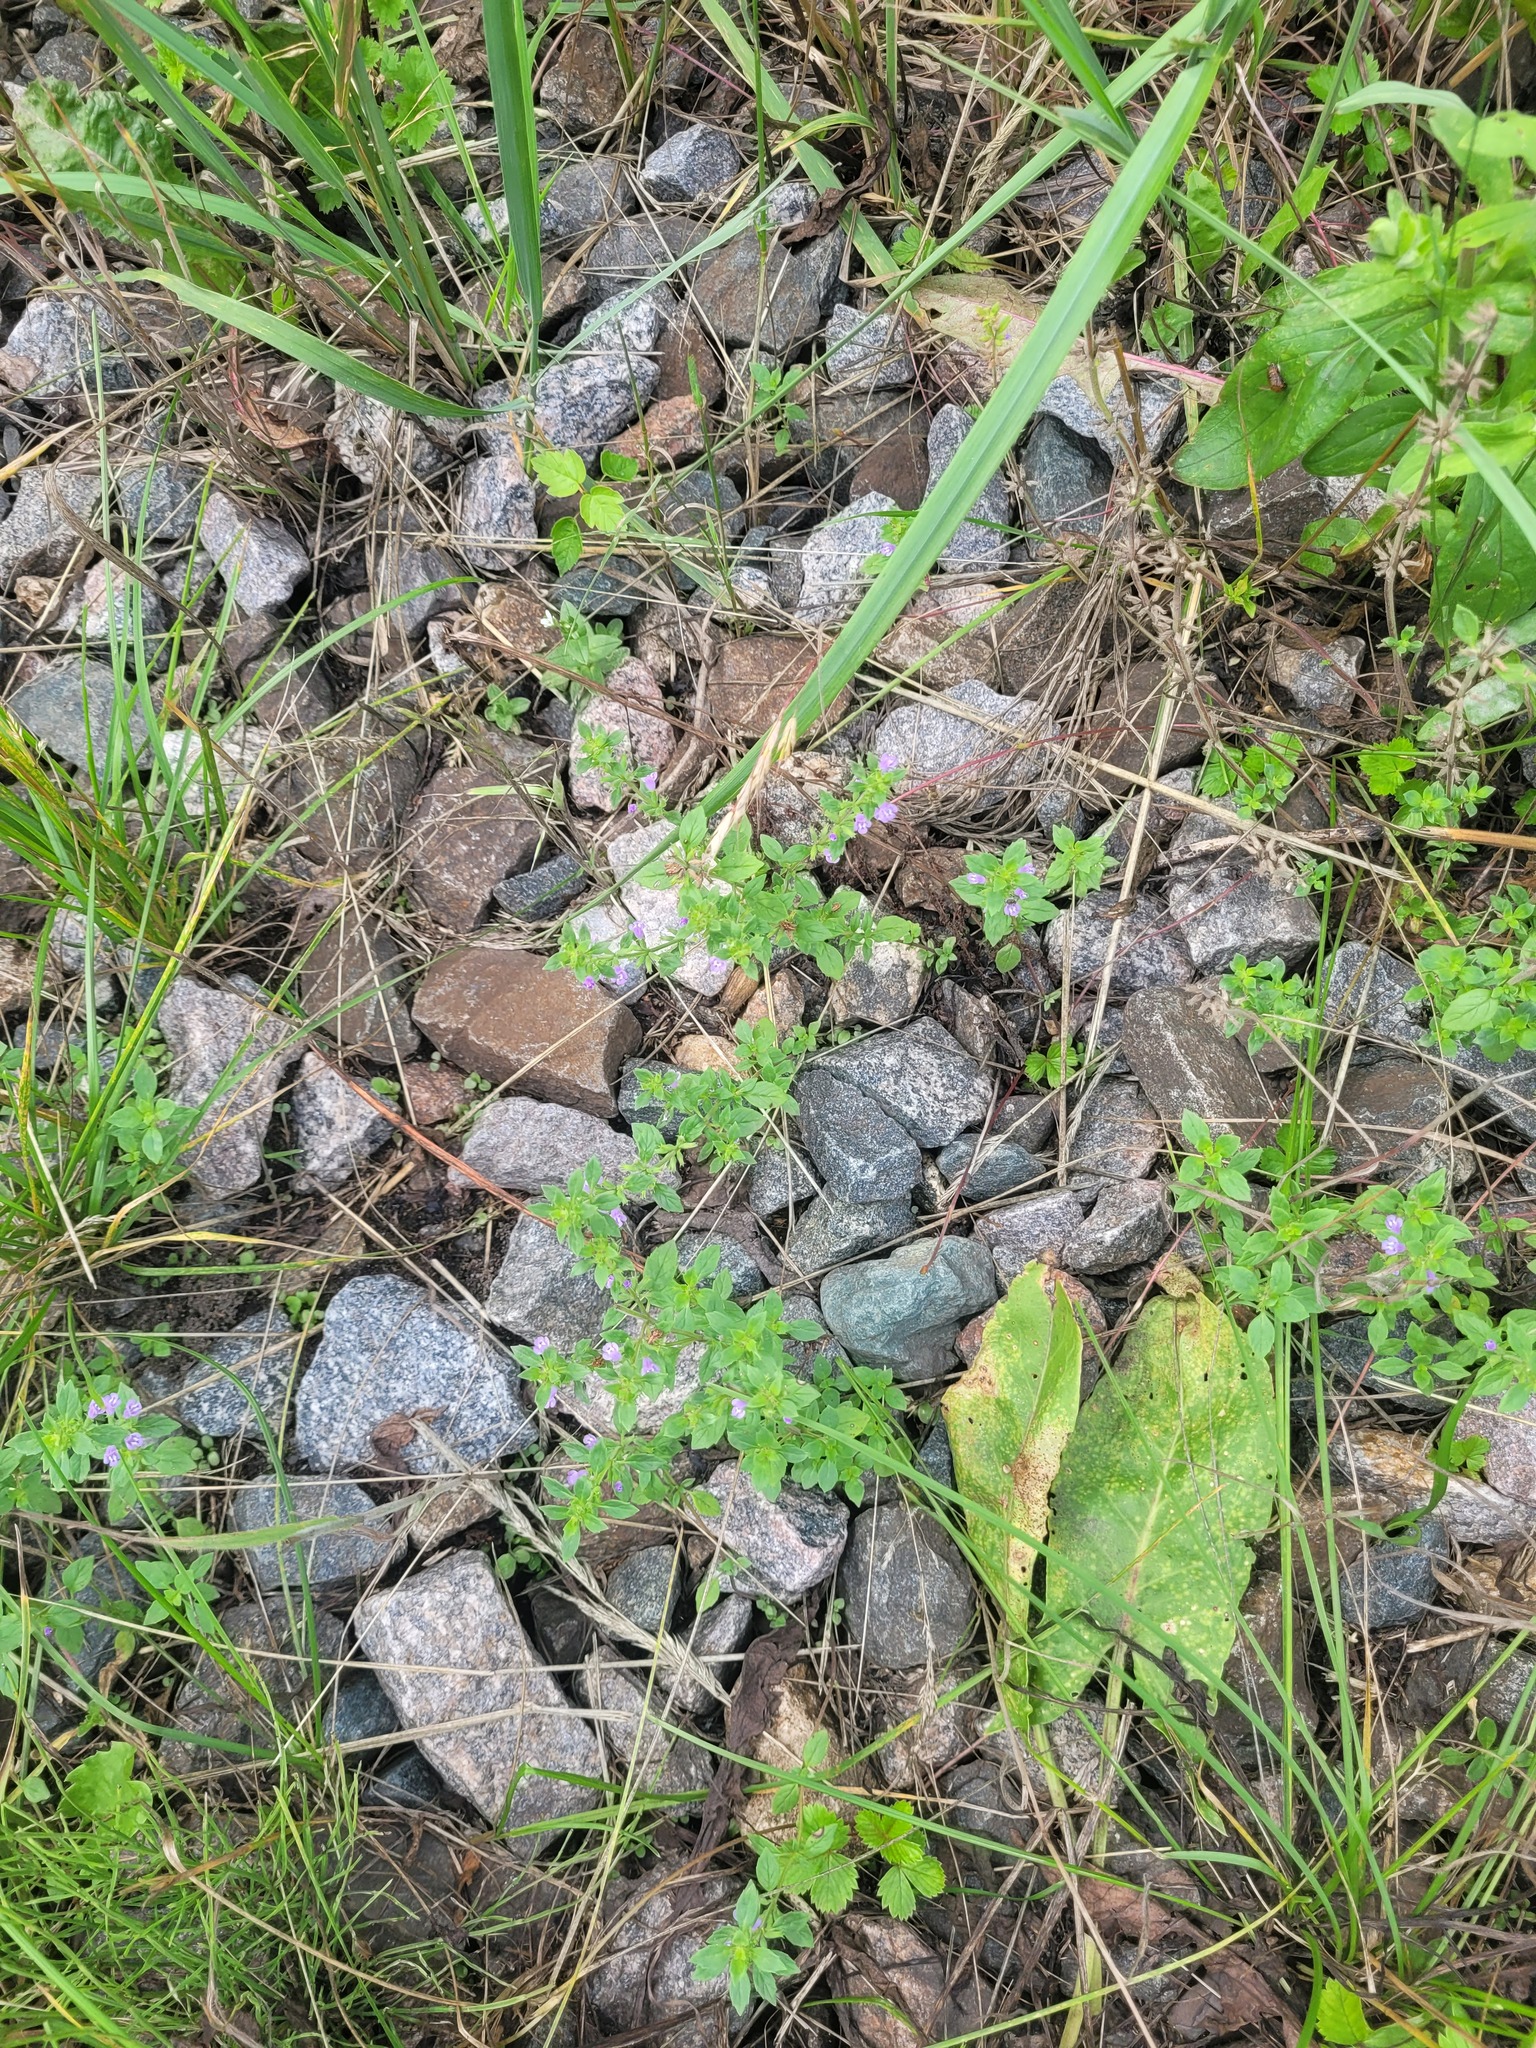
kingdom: Plantae
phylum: Tracheophyta
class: Magnoliopsida
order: Lamiales
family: Lamiaceae
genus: Clinopodium
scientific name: Clinopodium acinos
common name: Basil thyme
